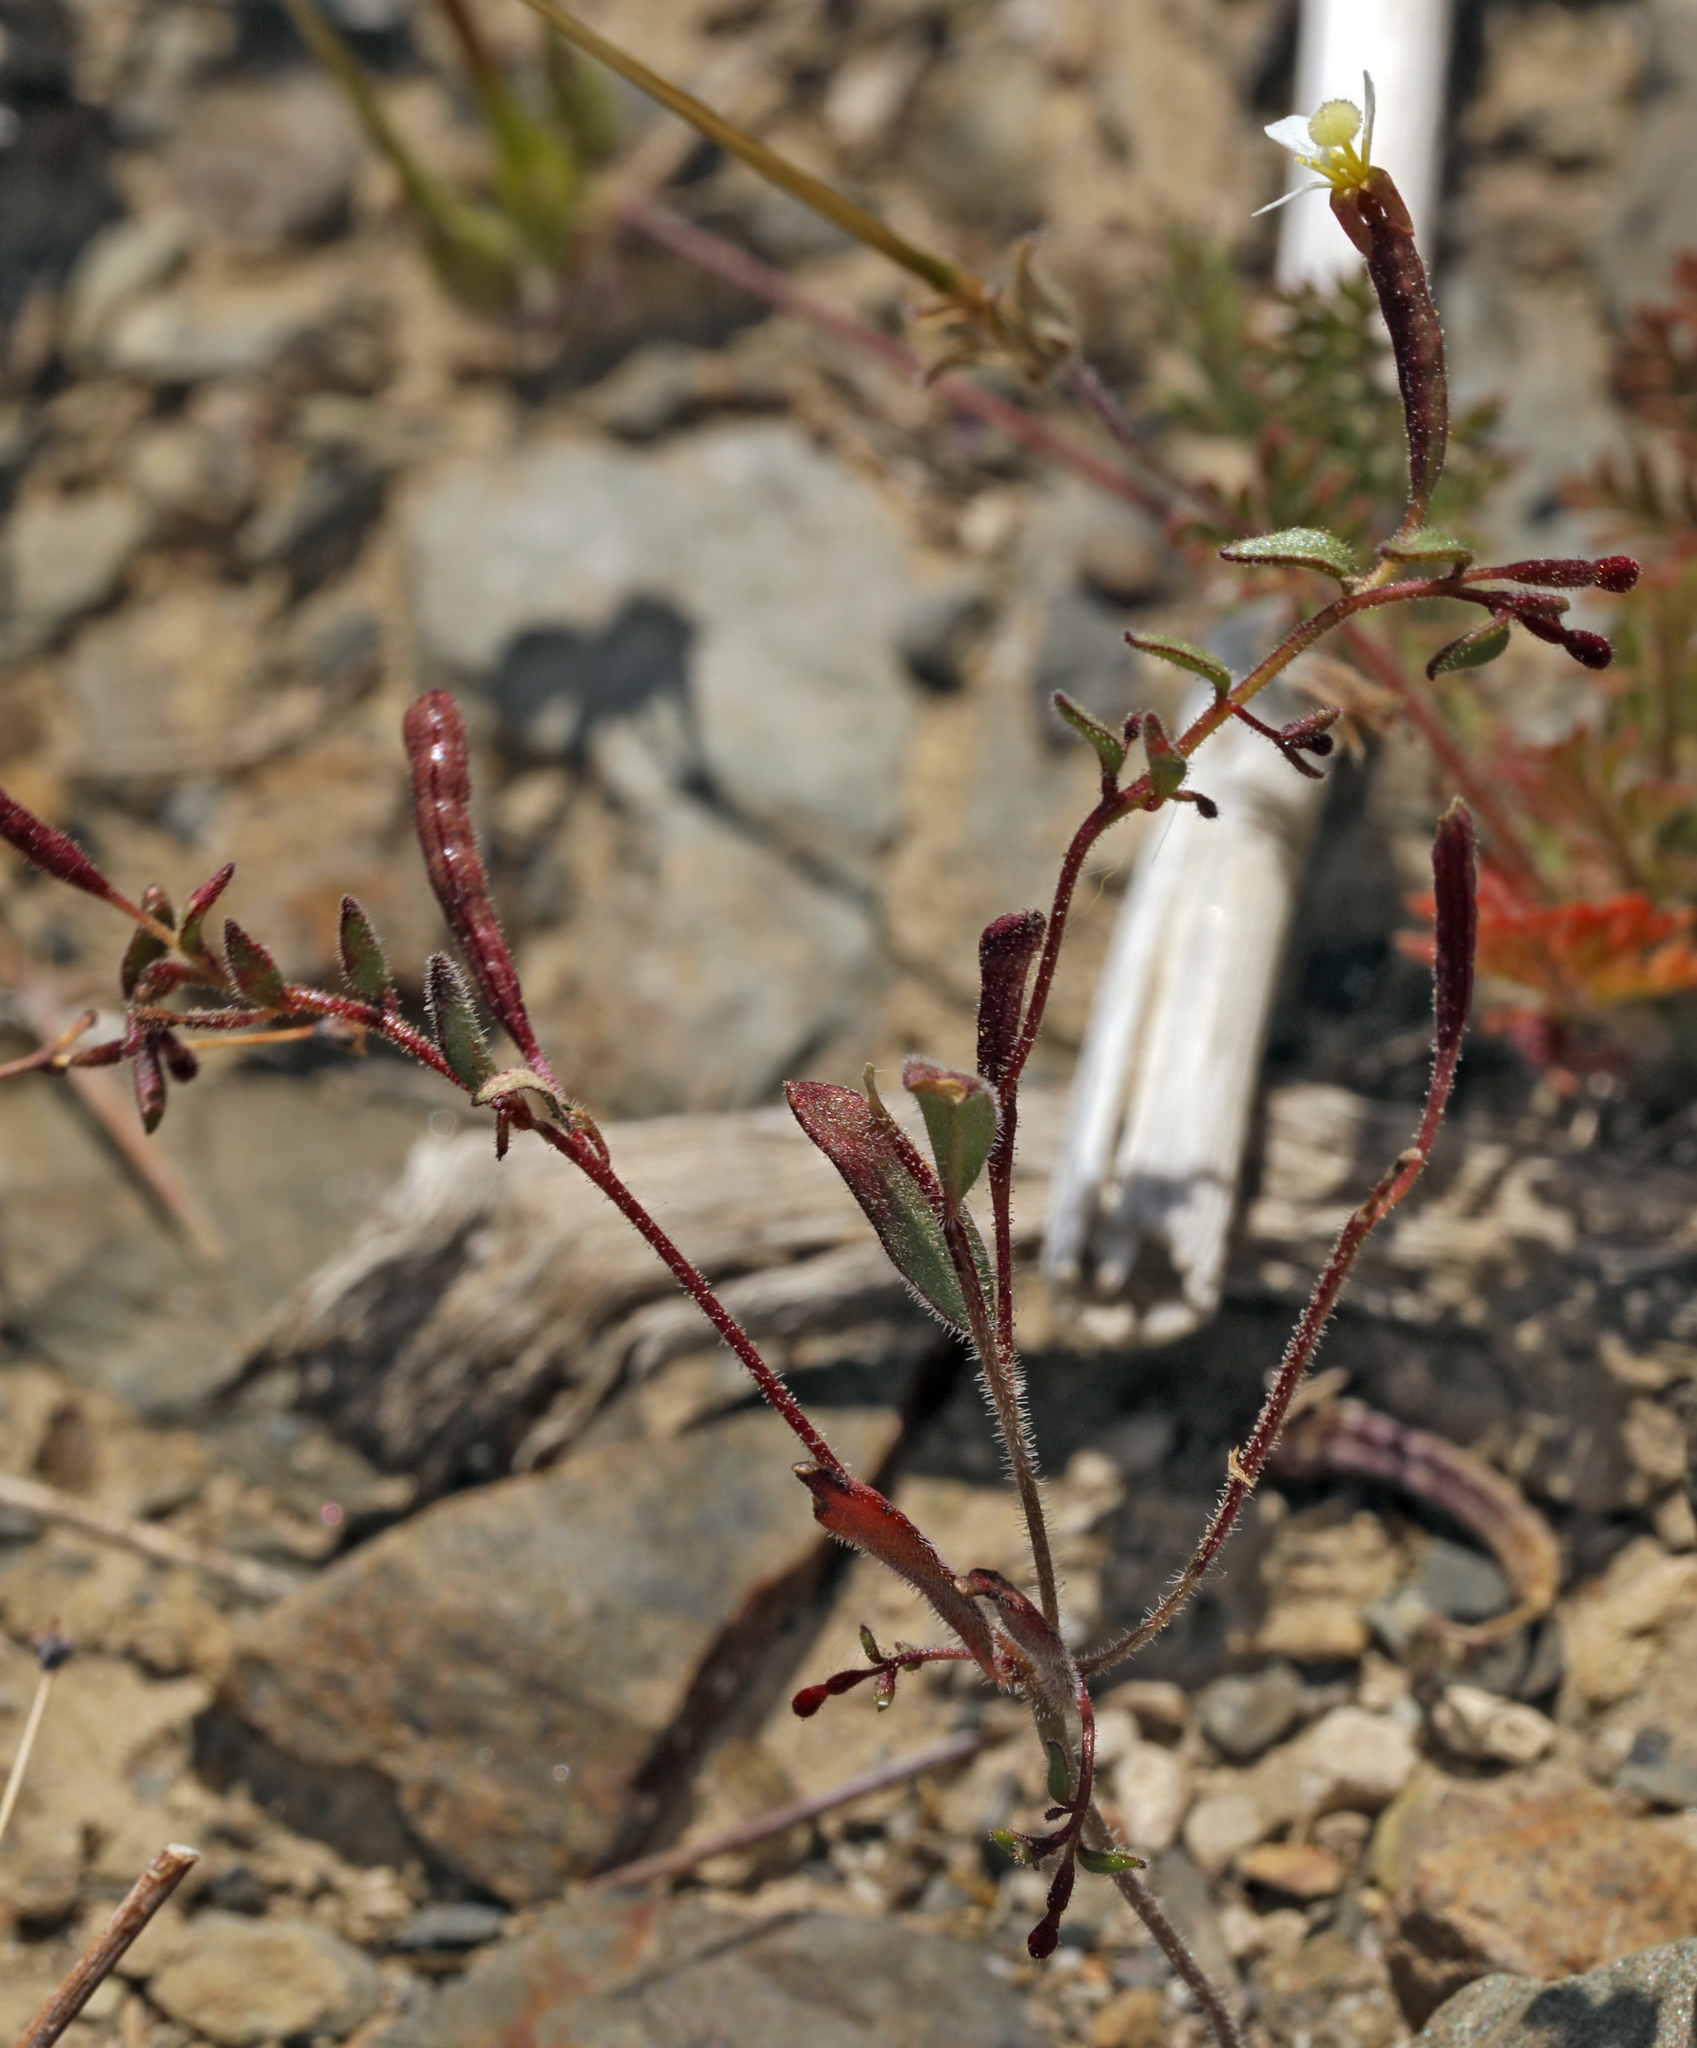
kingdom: Plantae
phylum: Tracheophyta
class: Magnoliopsida
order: Myrtales
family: Onagraceae
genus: Chylismiella
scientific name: Chylismiella pterosperma
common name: Wingfruit suncup
